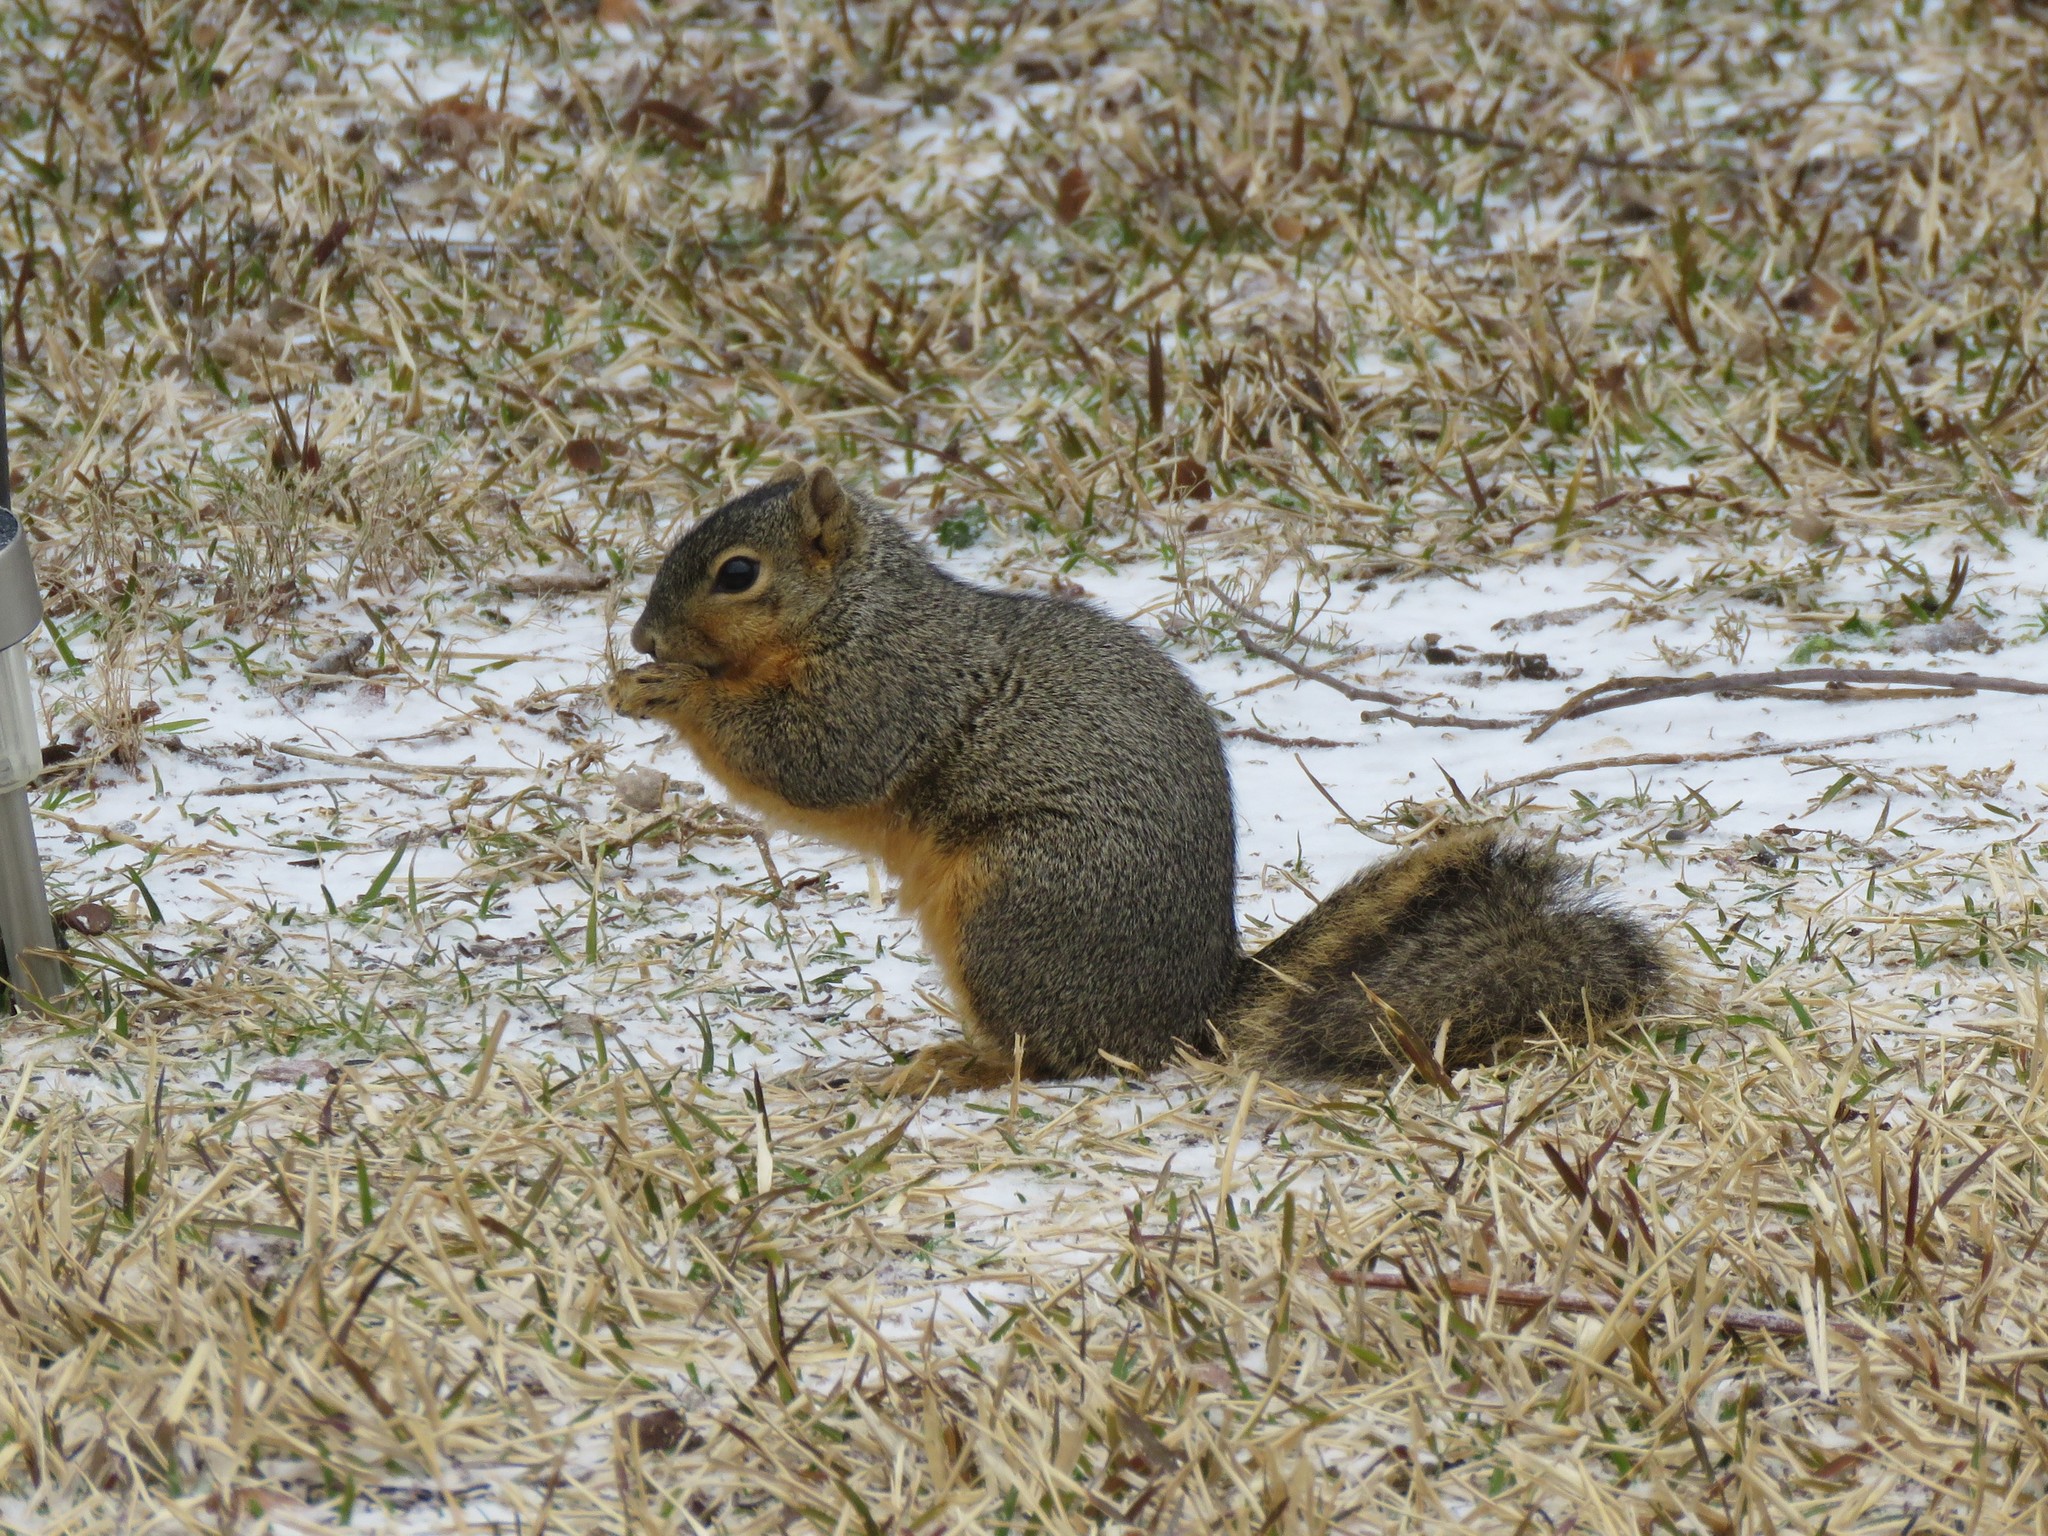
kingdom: Animalia
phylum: Chordata
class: Mammalia
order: Rodentia
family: Sciuridae
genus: Sciurus
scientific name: Sciurus niger
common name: Fox squirrel
